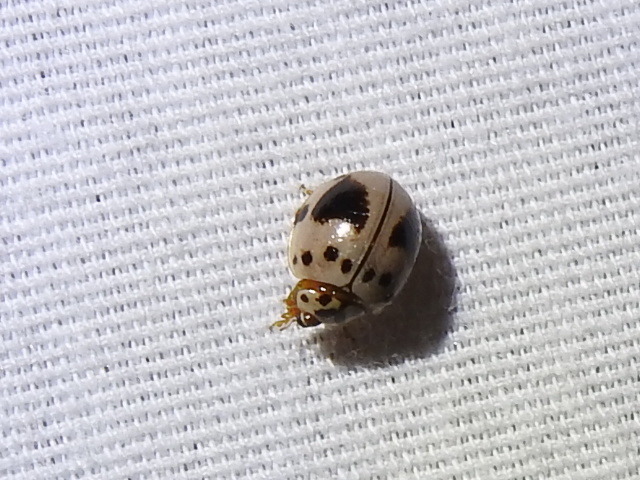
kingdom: Animalia
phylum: Arthropoda
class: Insecta
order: Coleoptera
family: Coccinellidae
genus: Olla
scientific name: Olla v-nigrum
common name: Ashy gray lady beetle
